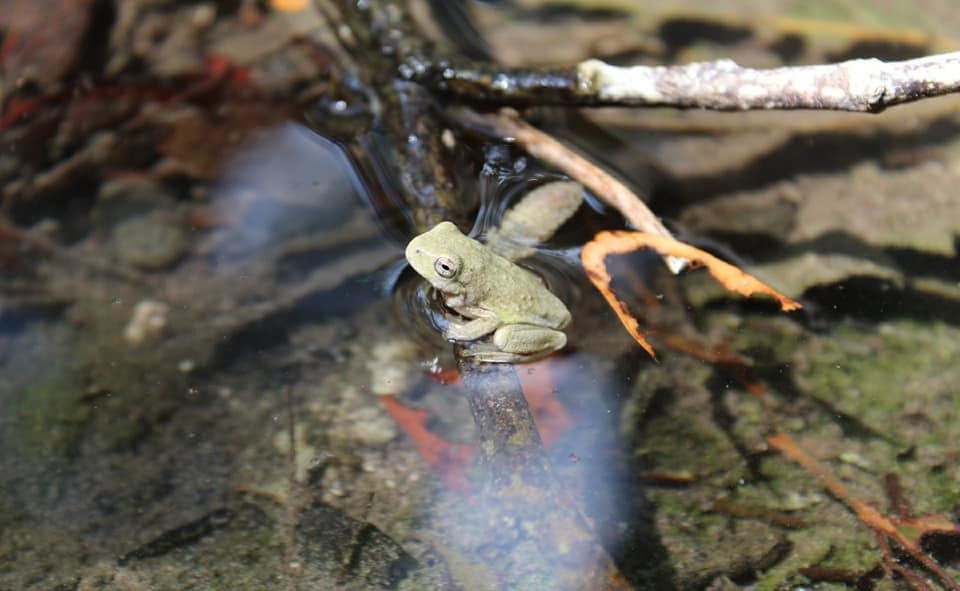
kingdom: Animalia
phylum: Chordata
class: Amphibia
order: Anura
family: Hylidae
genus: Rheohyla
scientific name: Rheohyla miotympanum
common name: Small-eard hyla
